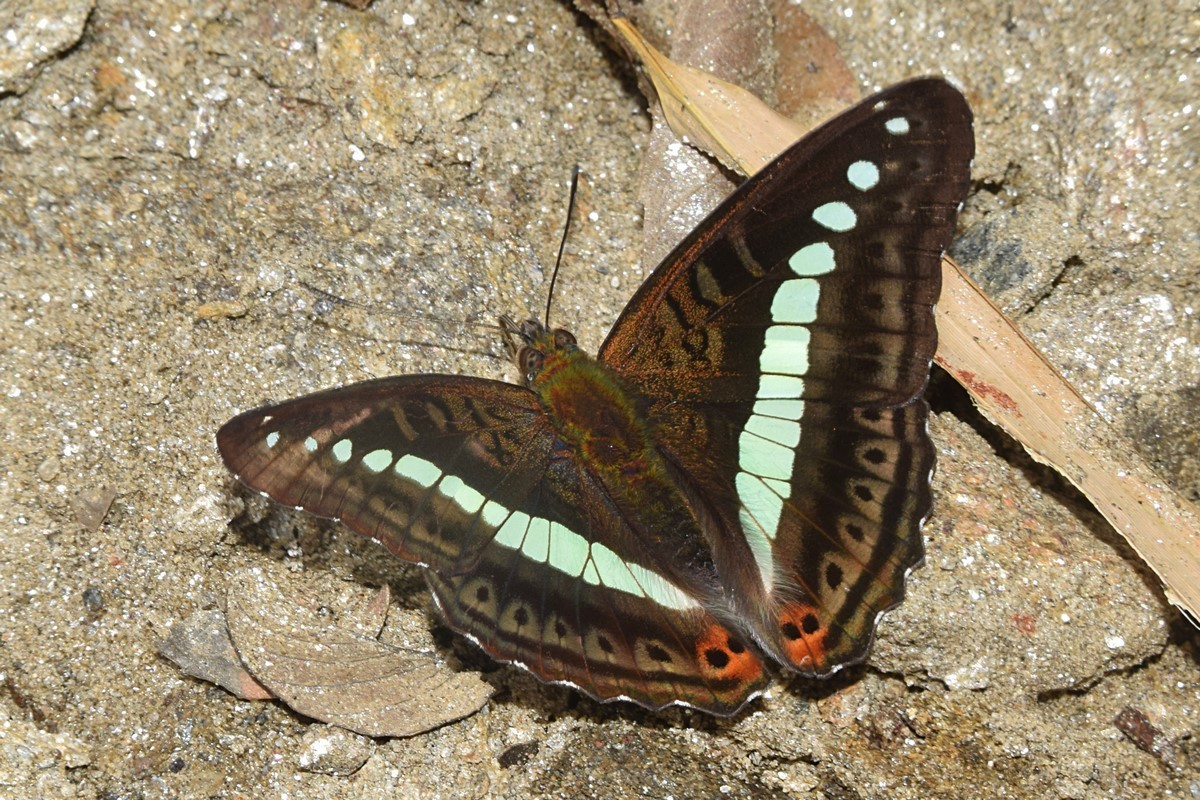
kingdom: Animalia
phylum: Arthropoda
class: Insecta
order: Lepidoptera
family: Nymphalidae
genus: Limenitis
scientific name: Limenitis Sumalia daraxa
